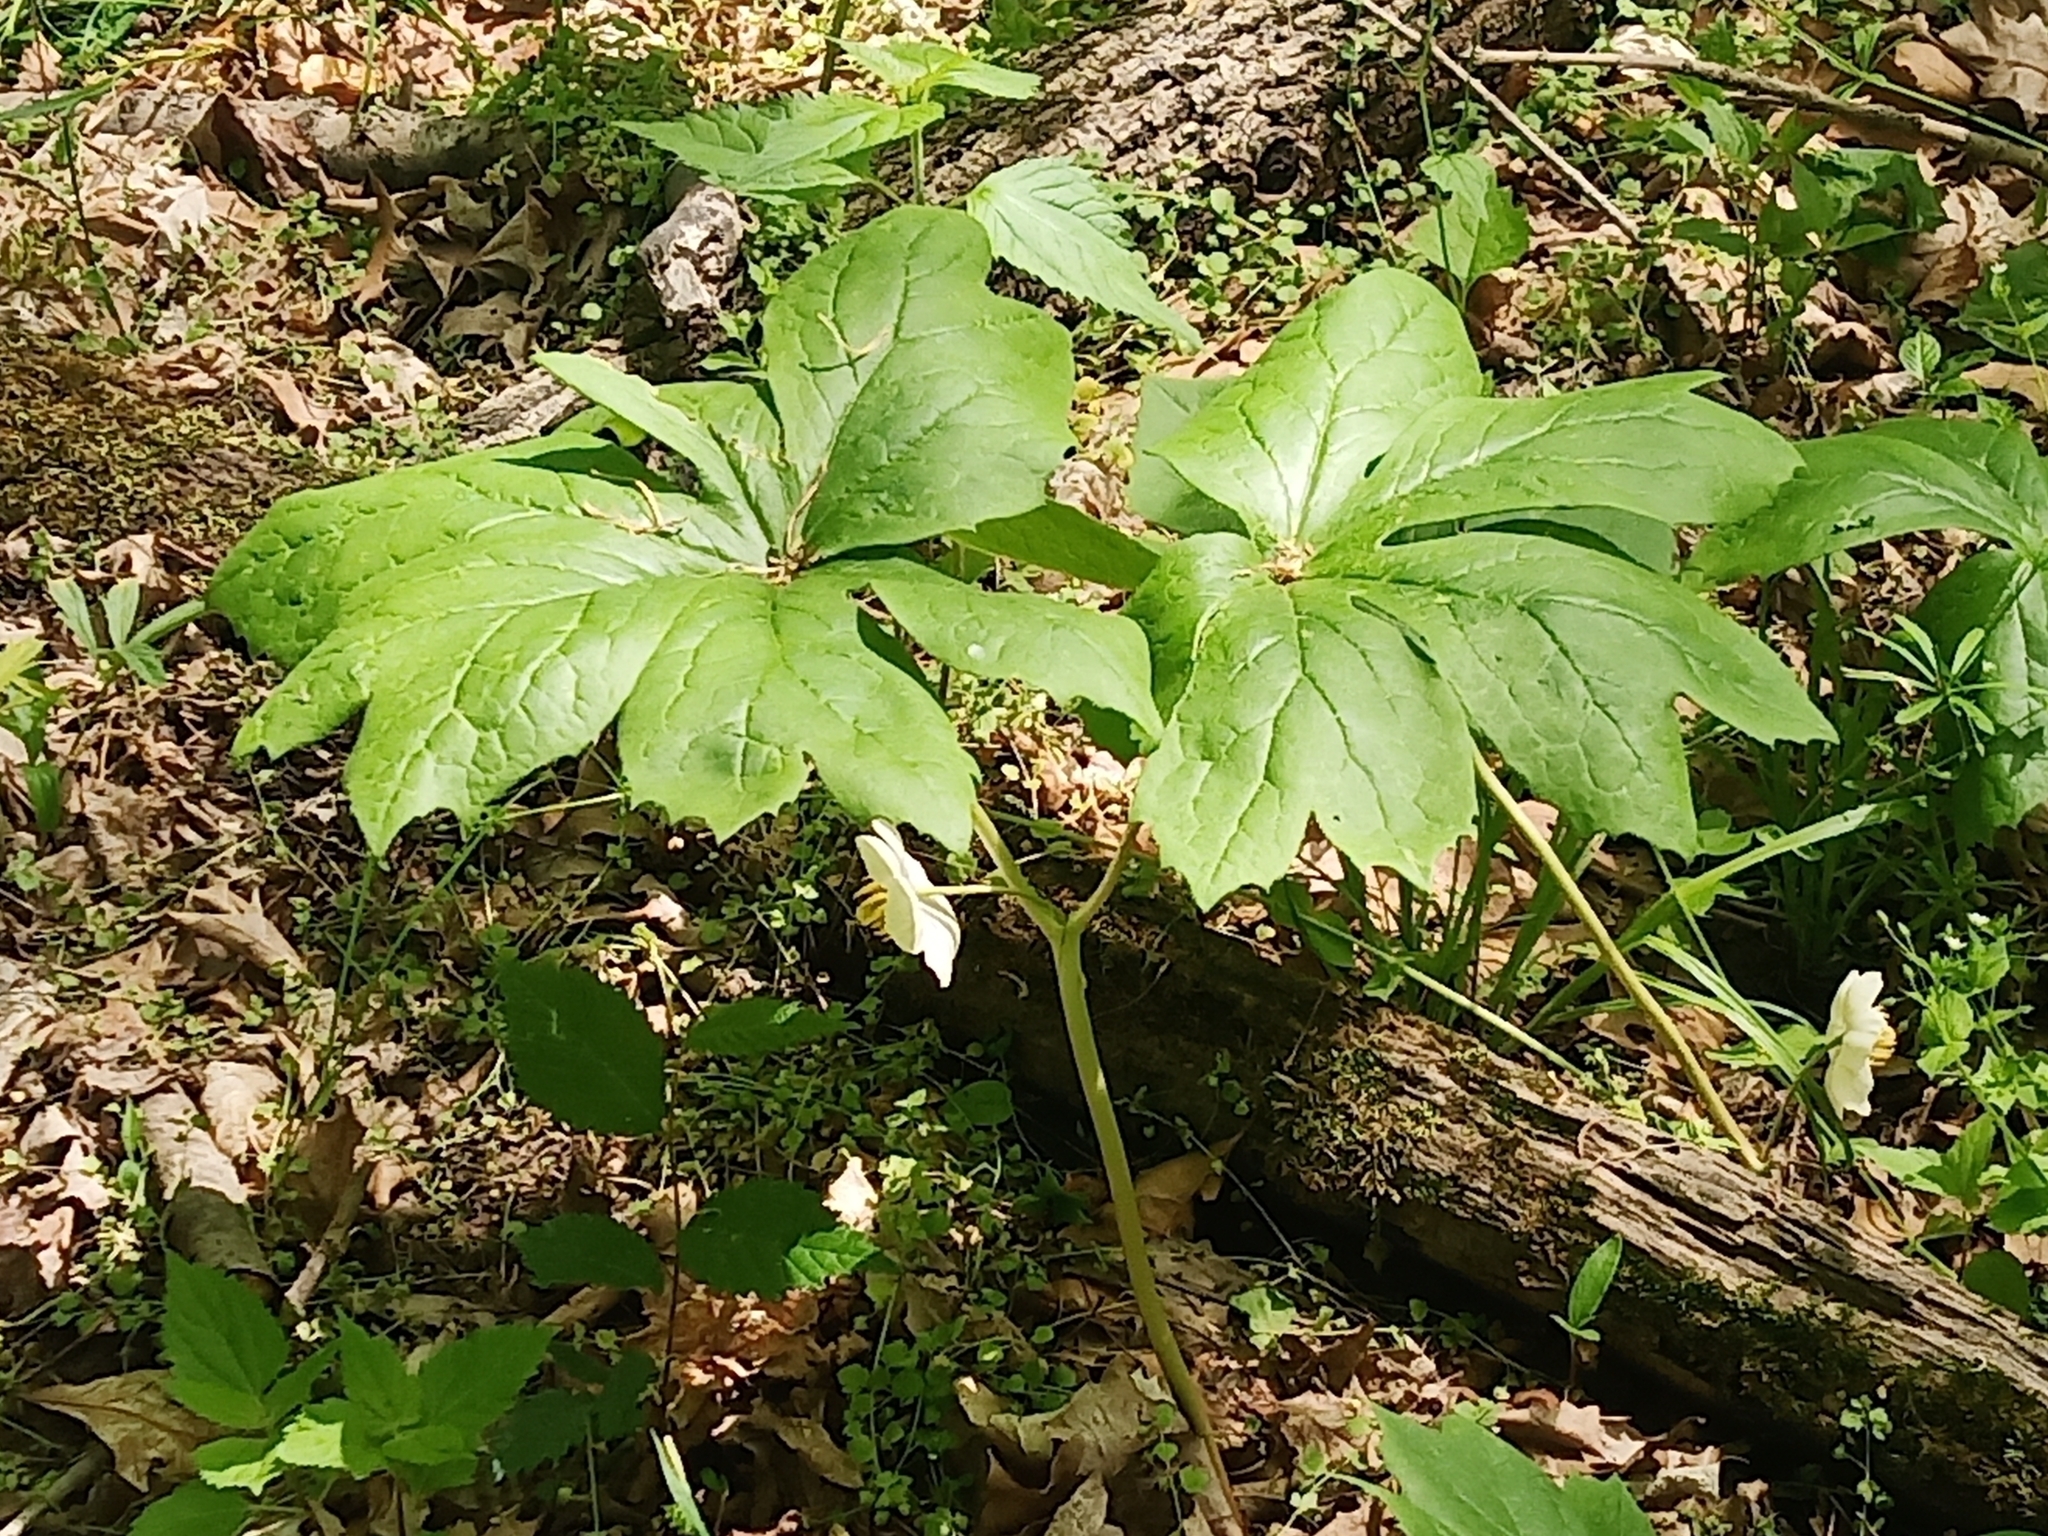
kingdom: Plantae
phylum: Tracheophyta
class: Magnoliopsida
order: Ranunculales
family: Berberidaceae
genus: Podophyllum
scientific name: Podophyllum peltatum
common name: Wild mandrake
